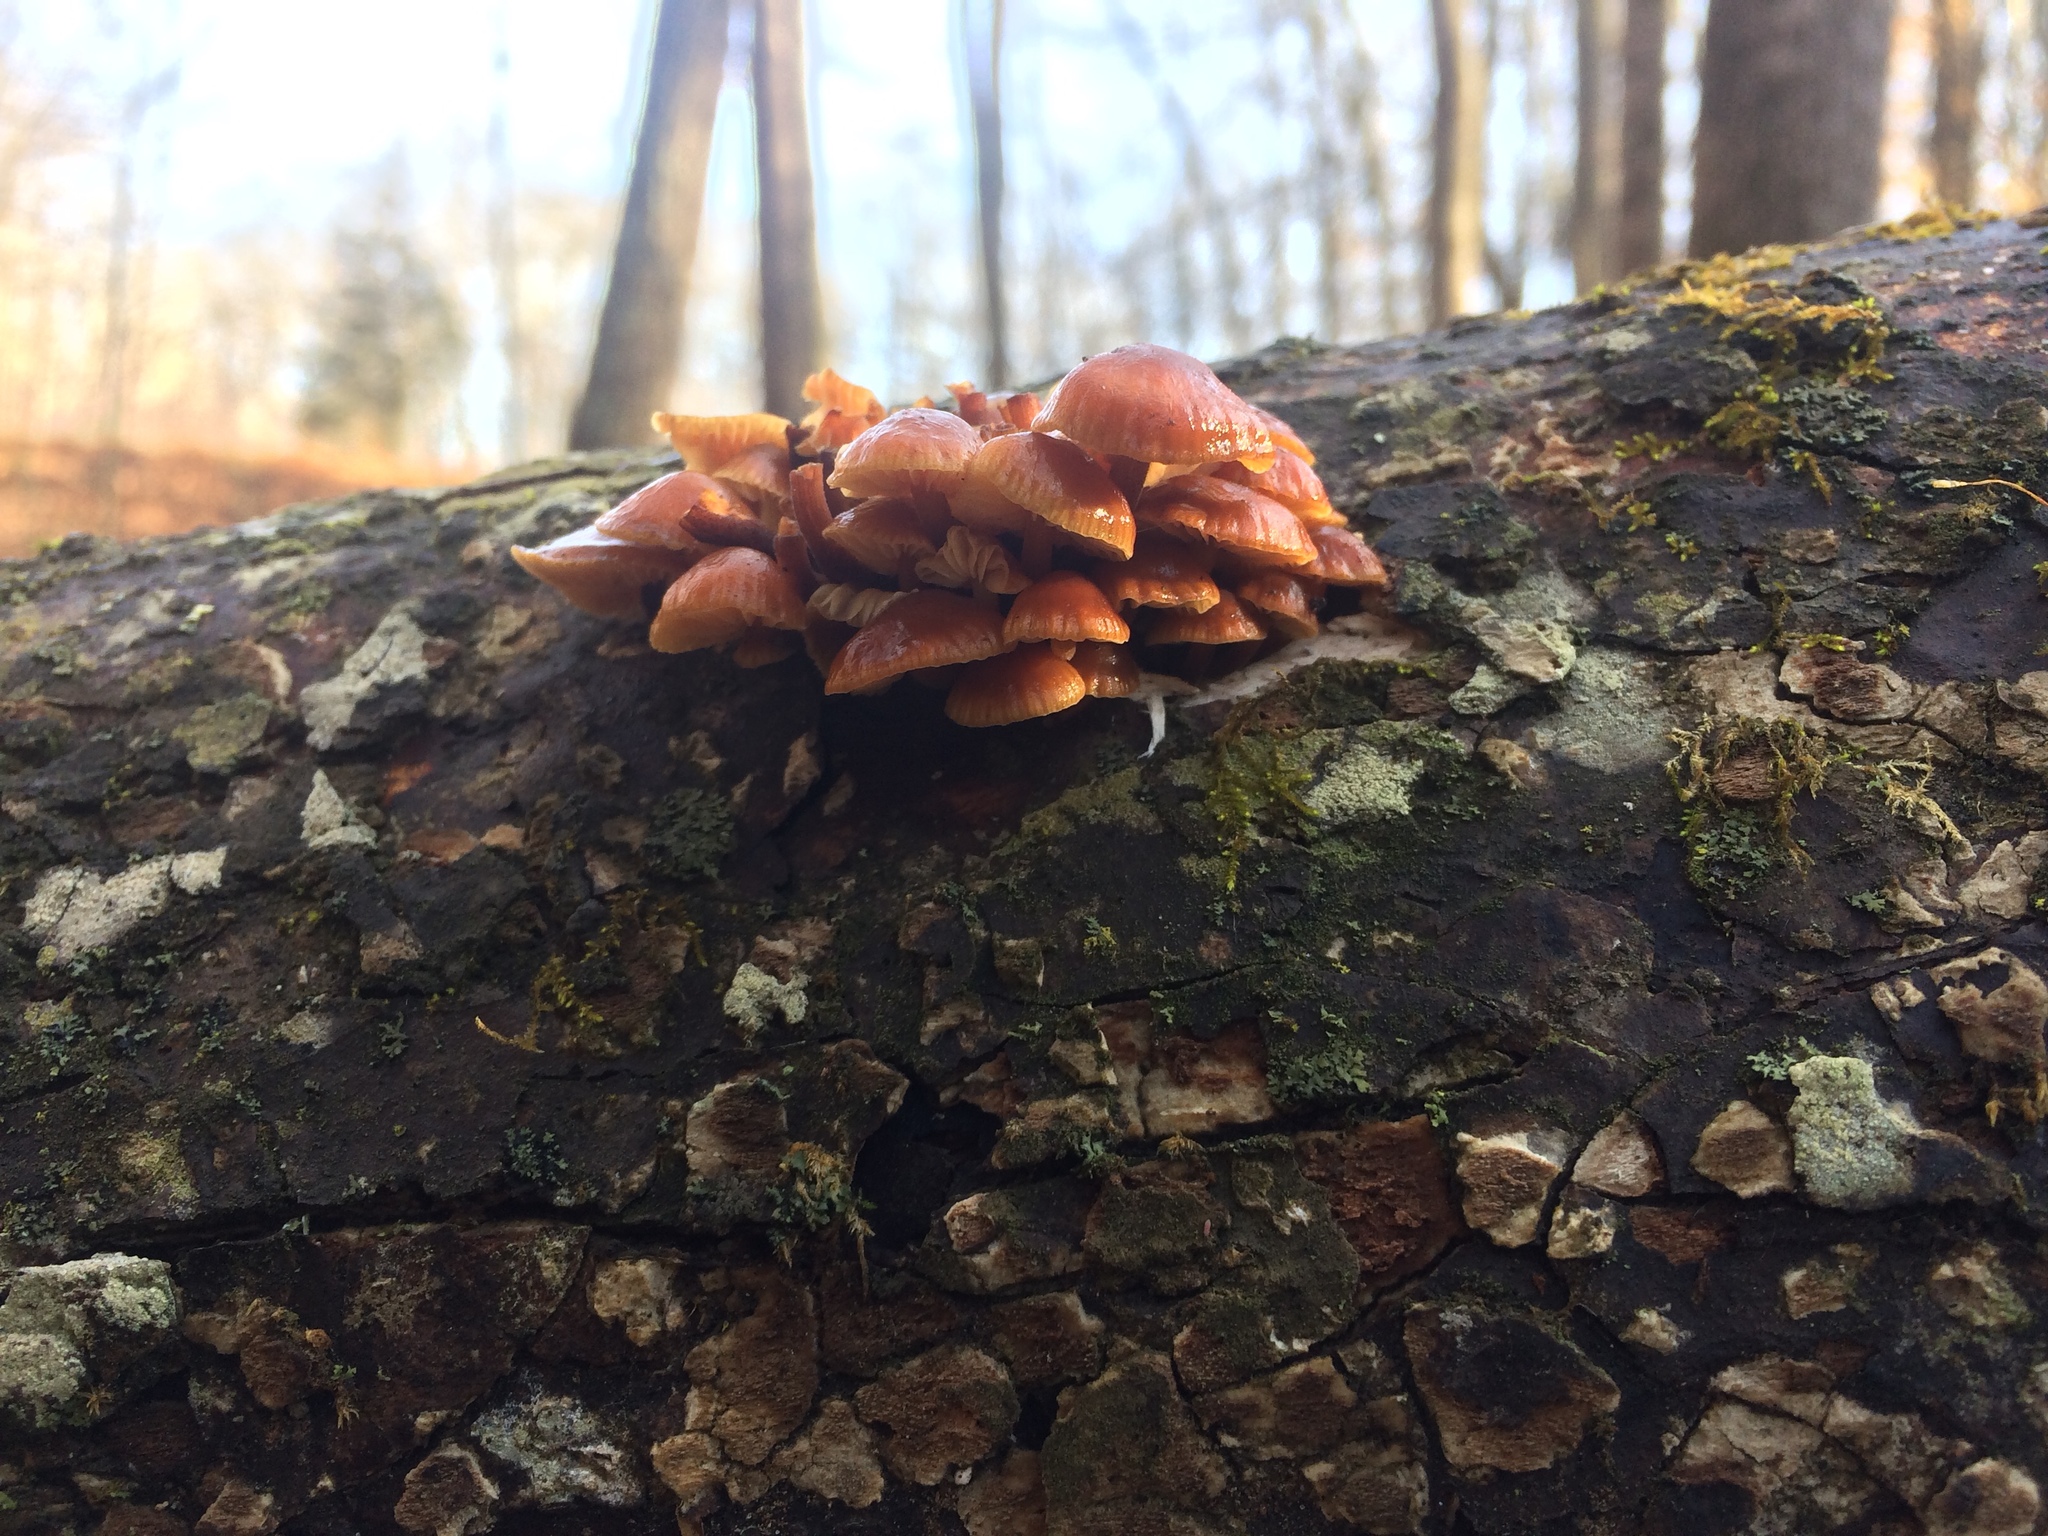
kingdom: Fungi
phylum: Basidiomycota
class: Agaricomycetes
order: Agaricales
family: Physalacriaceae
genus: Flammulina
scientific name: Flammulina velutipes
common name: Velvet shank
